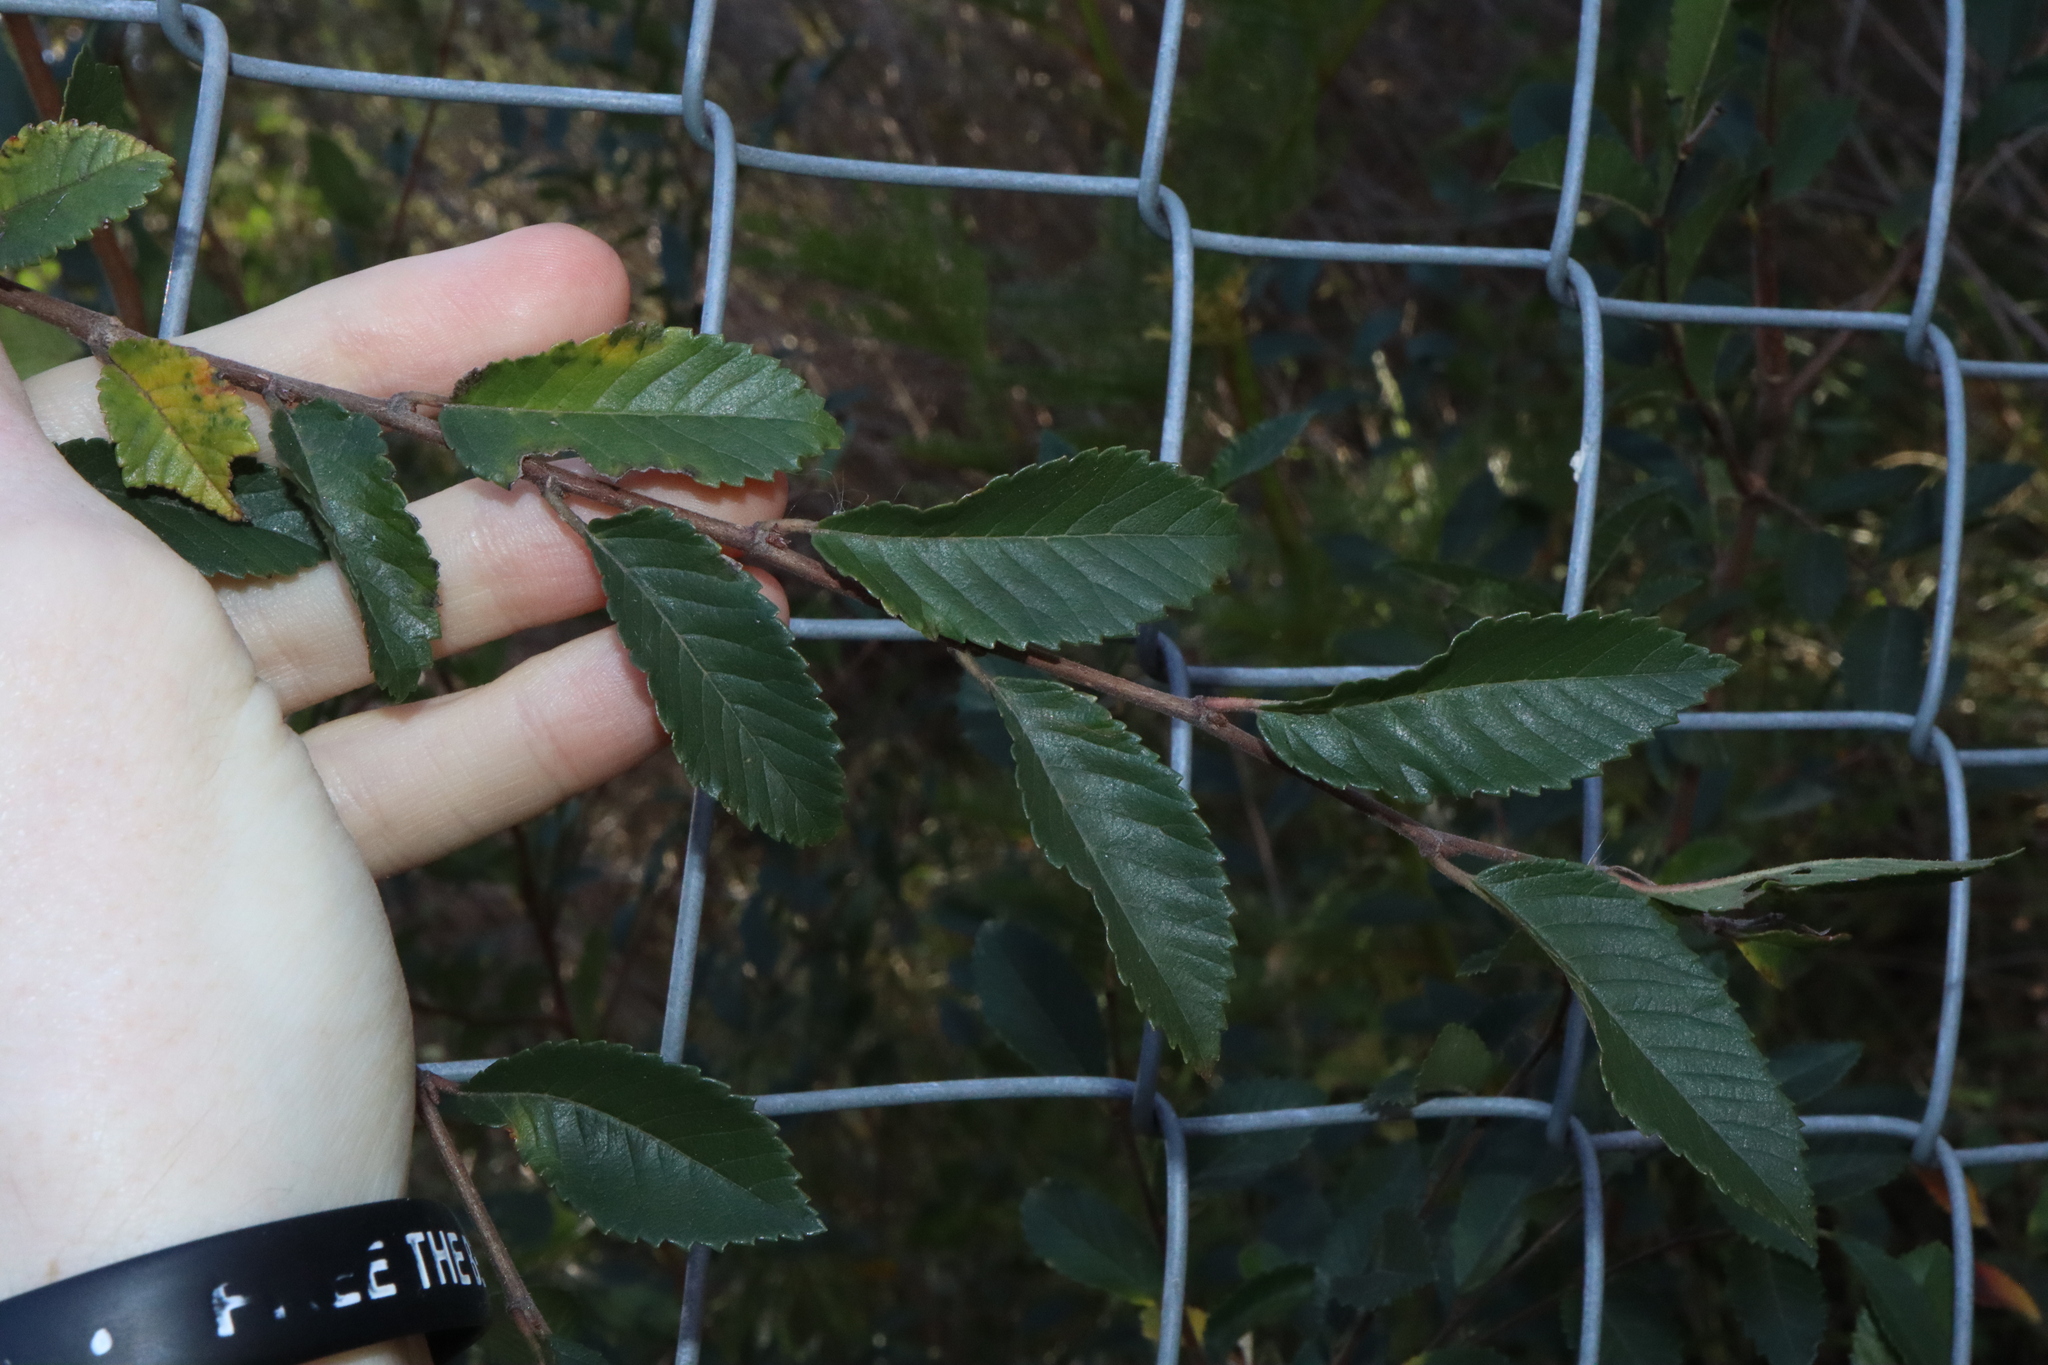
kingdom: Plantae
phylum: Tracheophyta
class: Magnoliopsida
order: Rosales
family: Ulmaceae
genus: Ulmus
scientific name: Ulmus parvifolia
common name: Chinese elm
